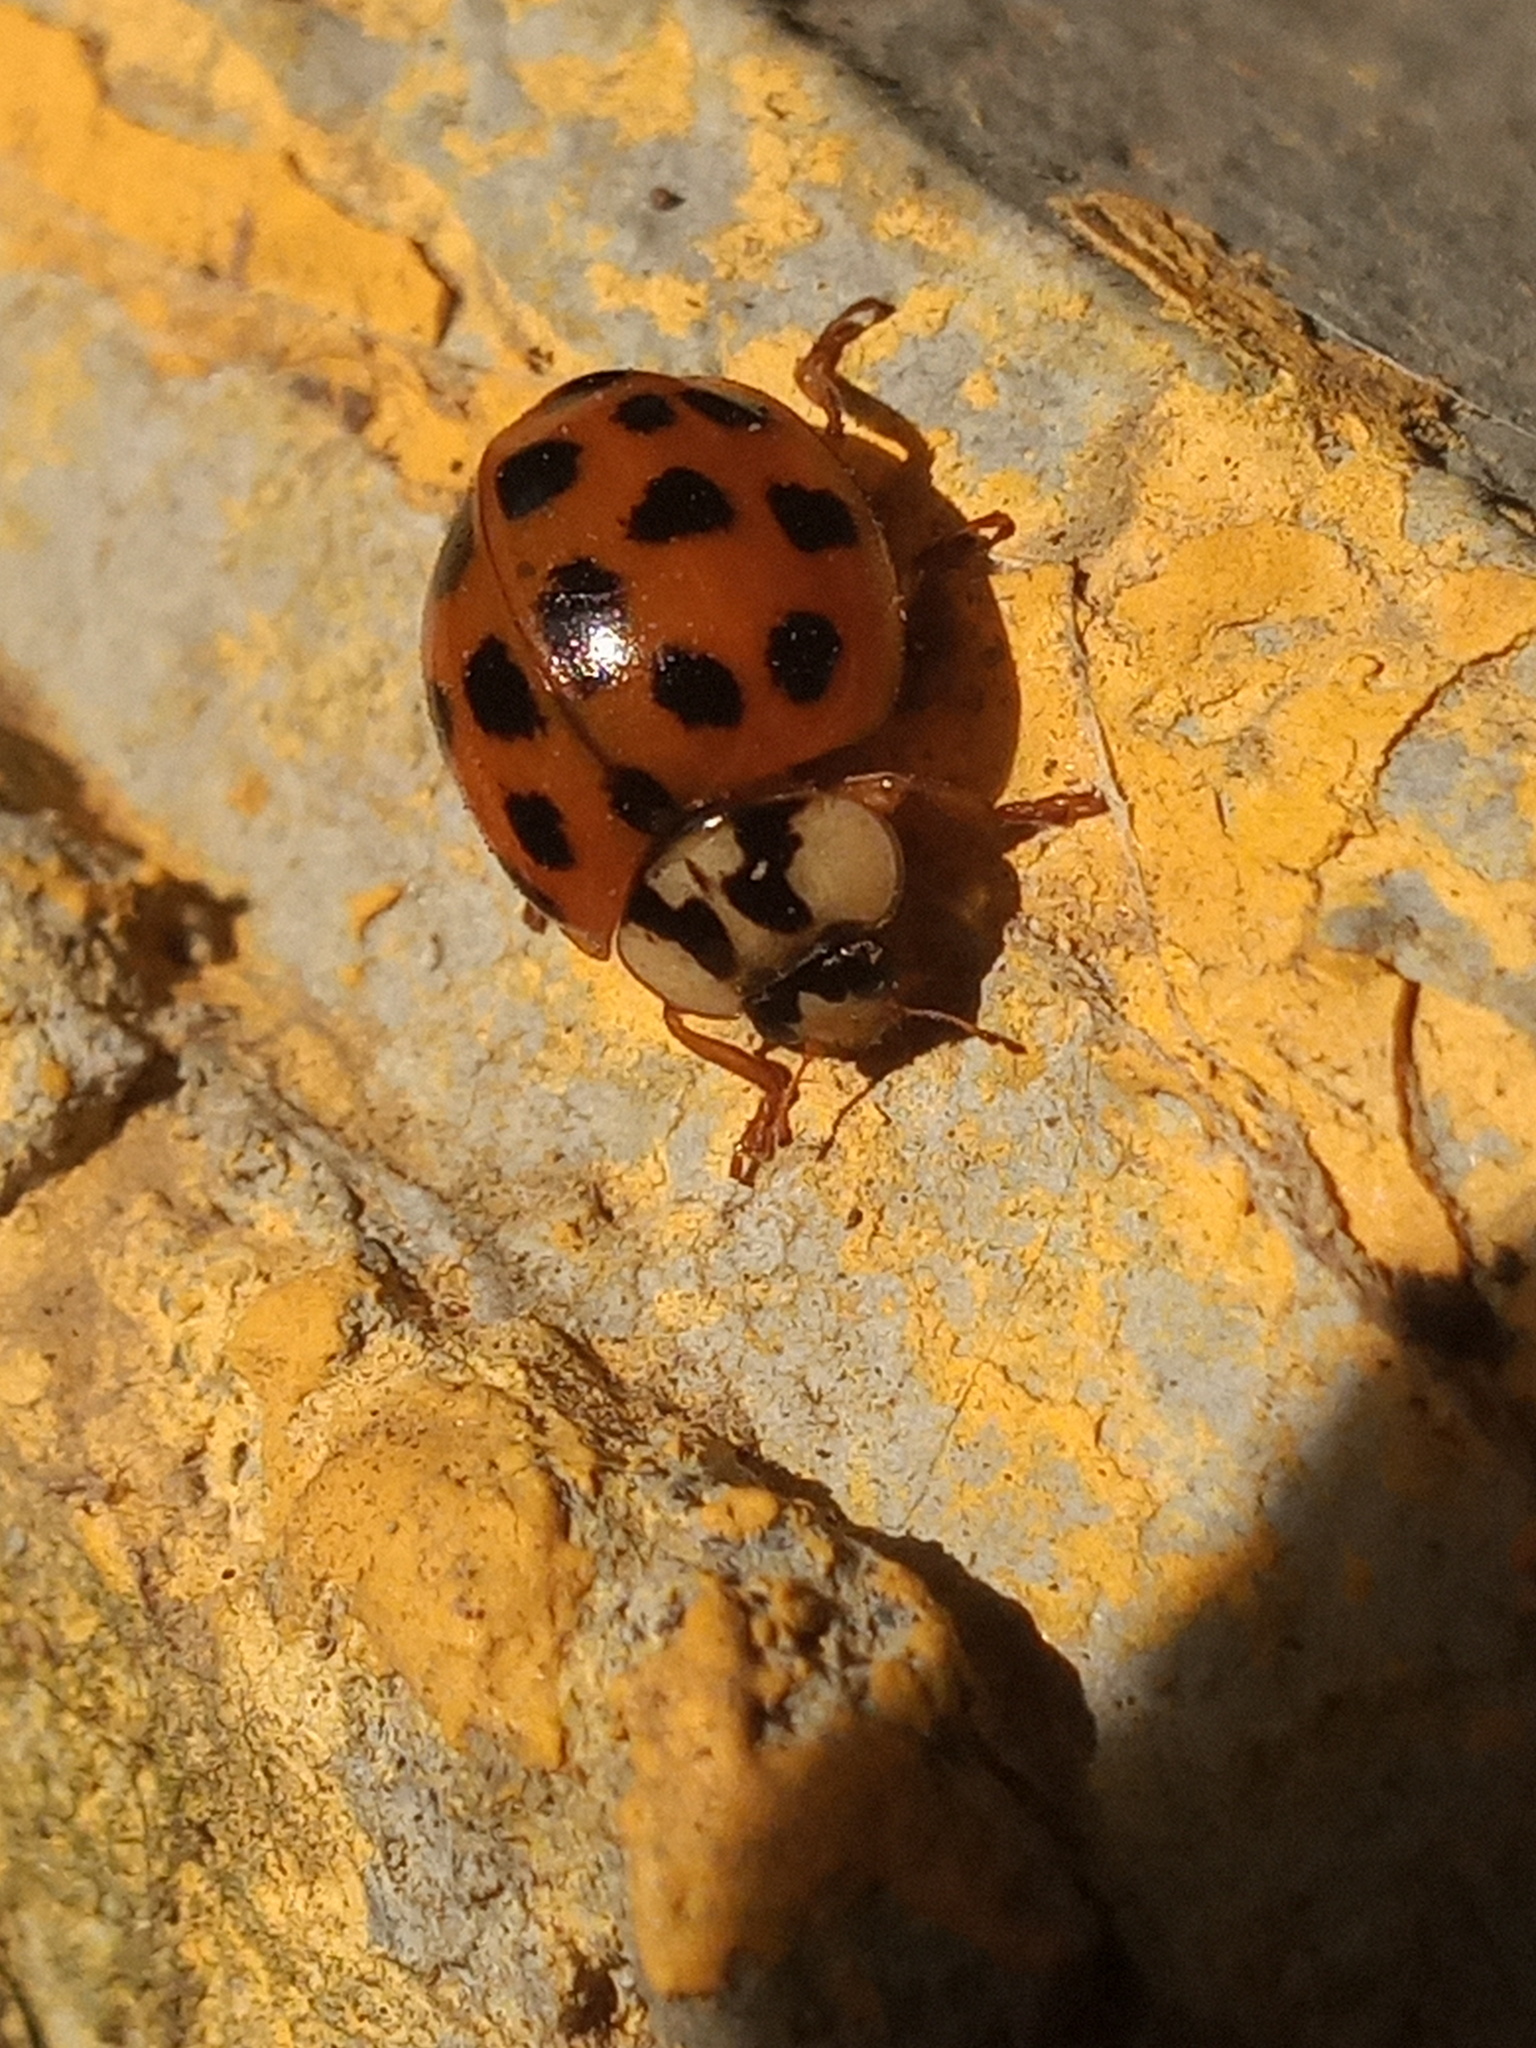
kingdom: Animalia
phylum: Arthropoda
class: Insecta
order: Coleoptera
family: Coccinellidae
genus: Harmonia
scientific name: Harmonia axyridis
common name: Harlequin ladybird
